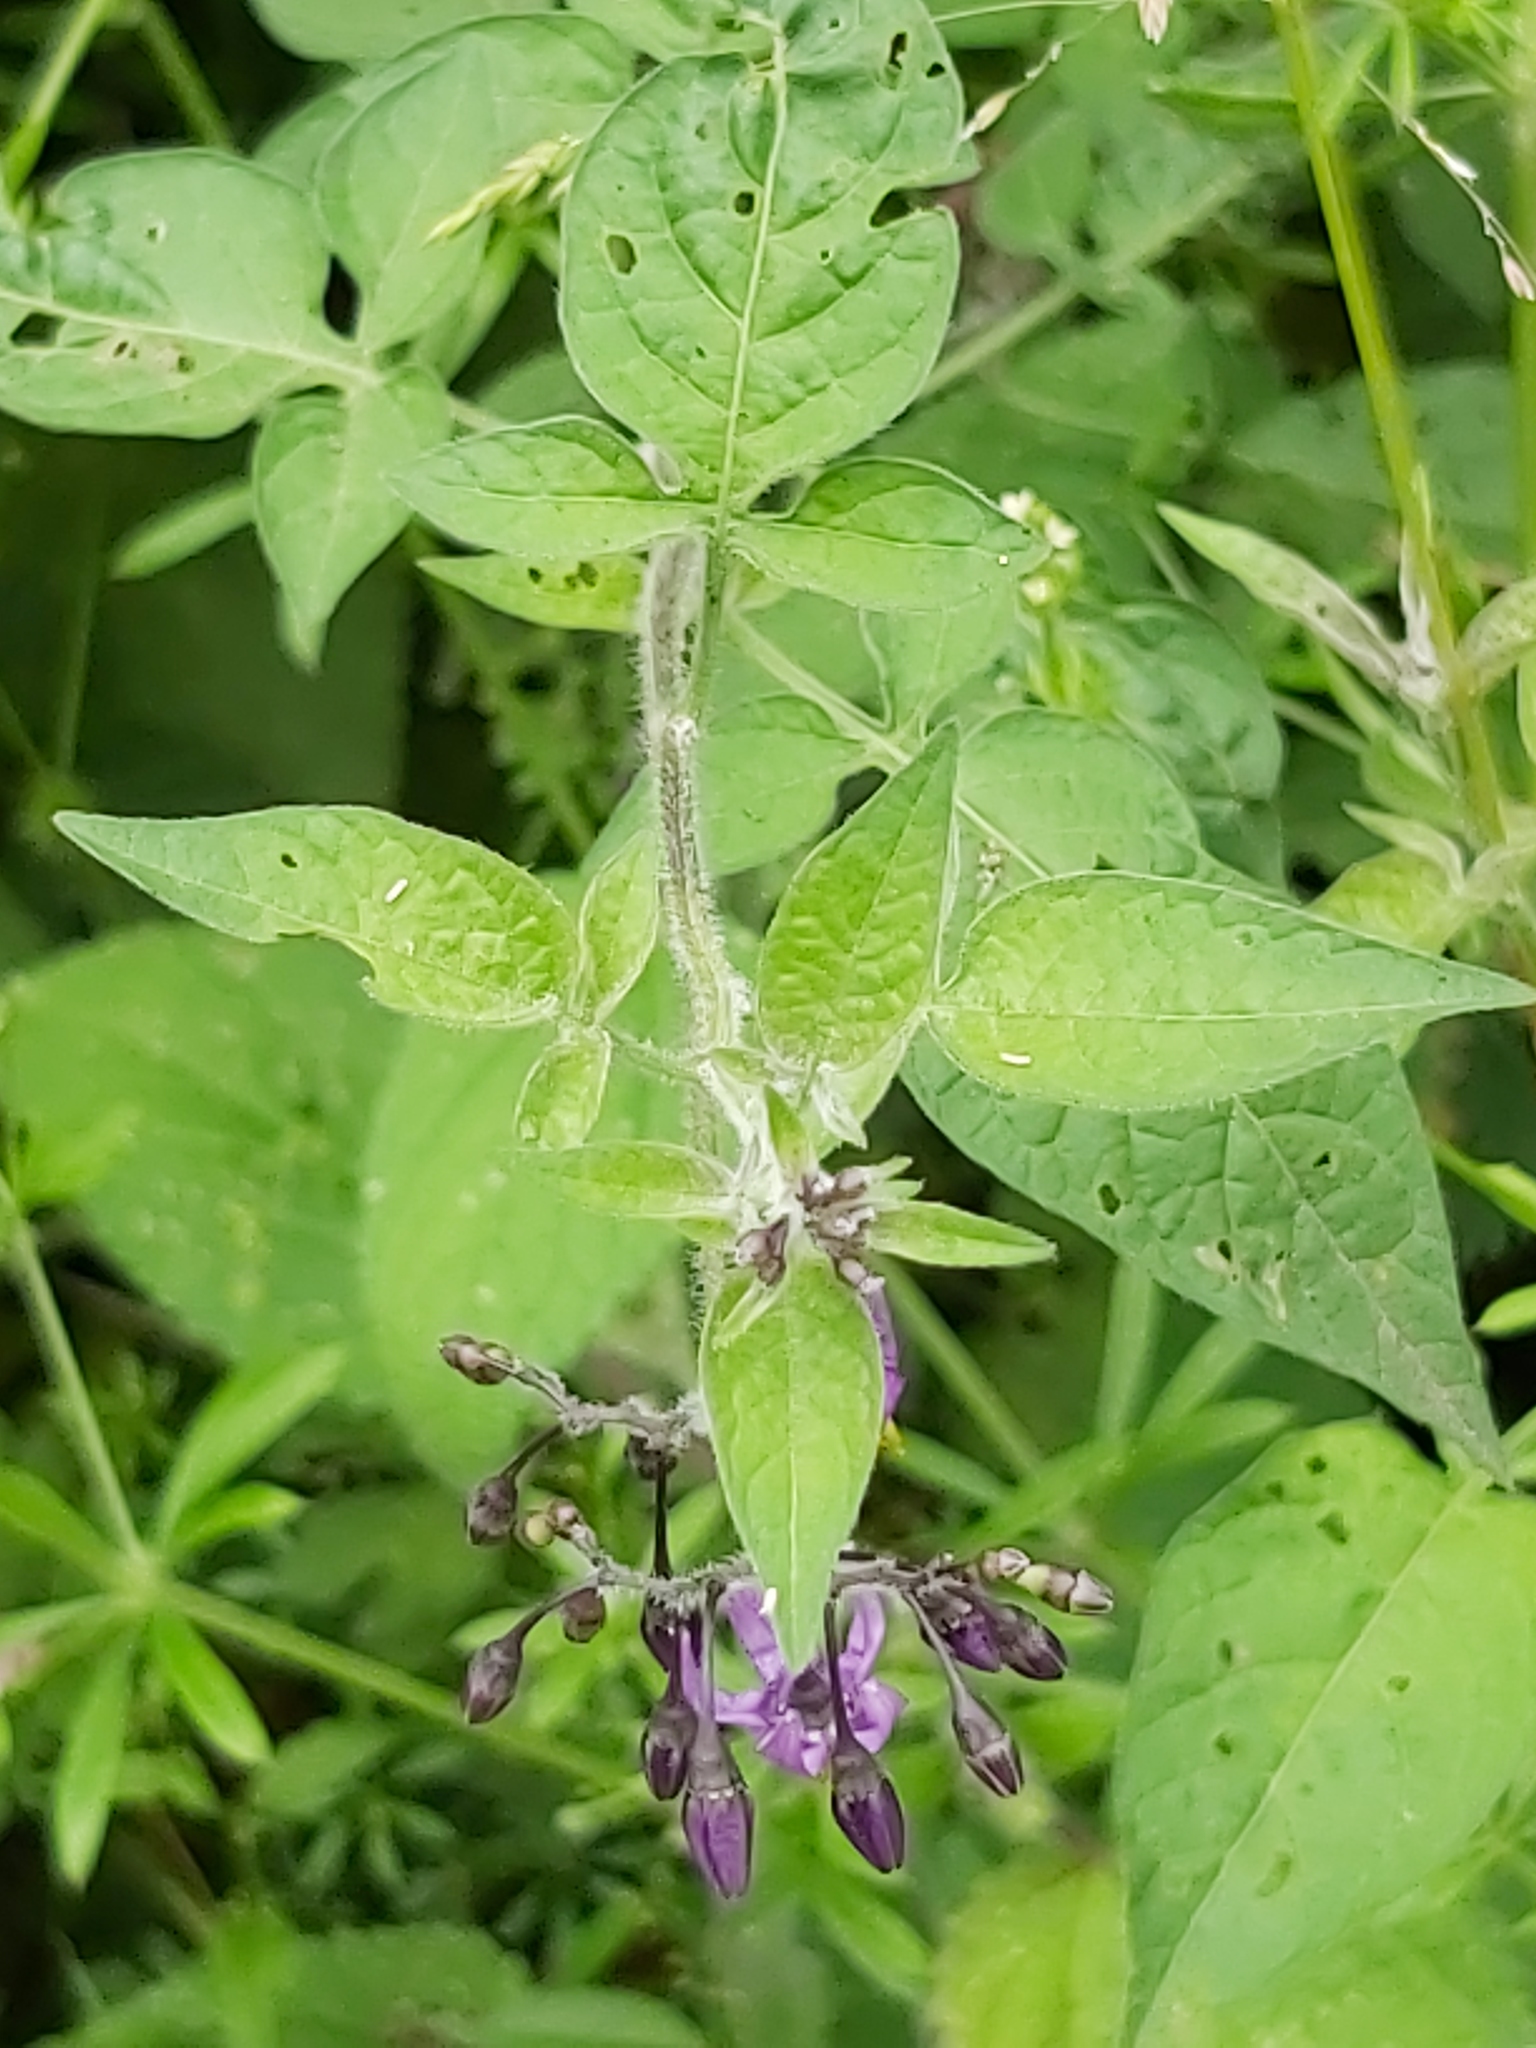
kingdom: Plantae
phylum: Tracheophyta
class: Magnoliopsida
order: Solanales
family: Solanaceae
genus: Solanum
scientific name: Solanum dulcamara
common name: Climbing nightshade
